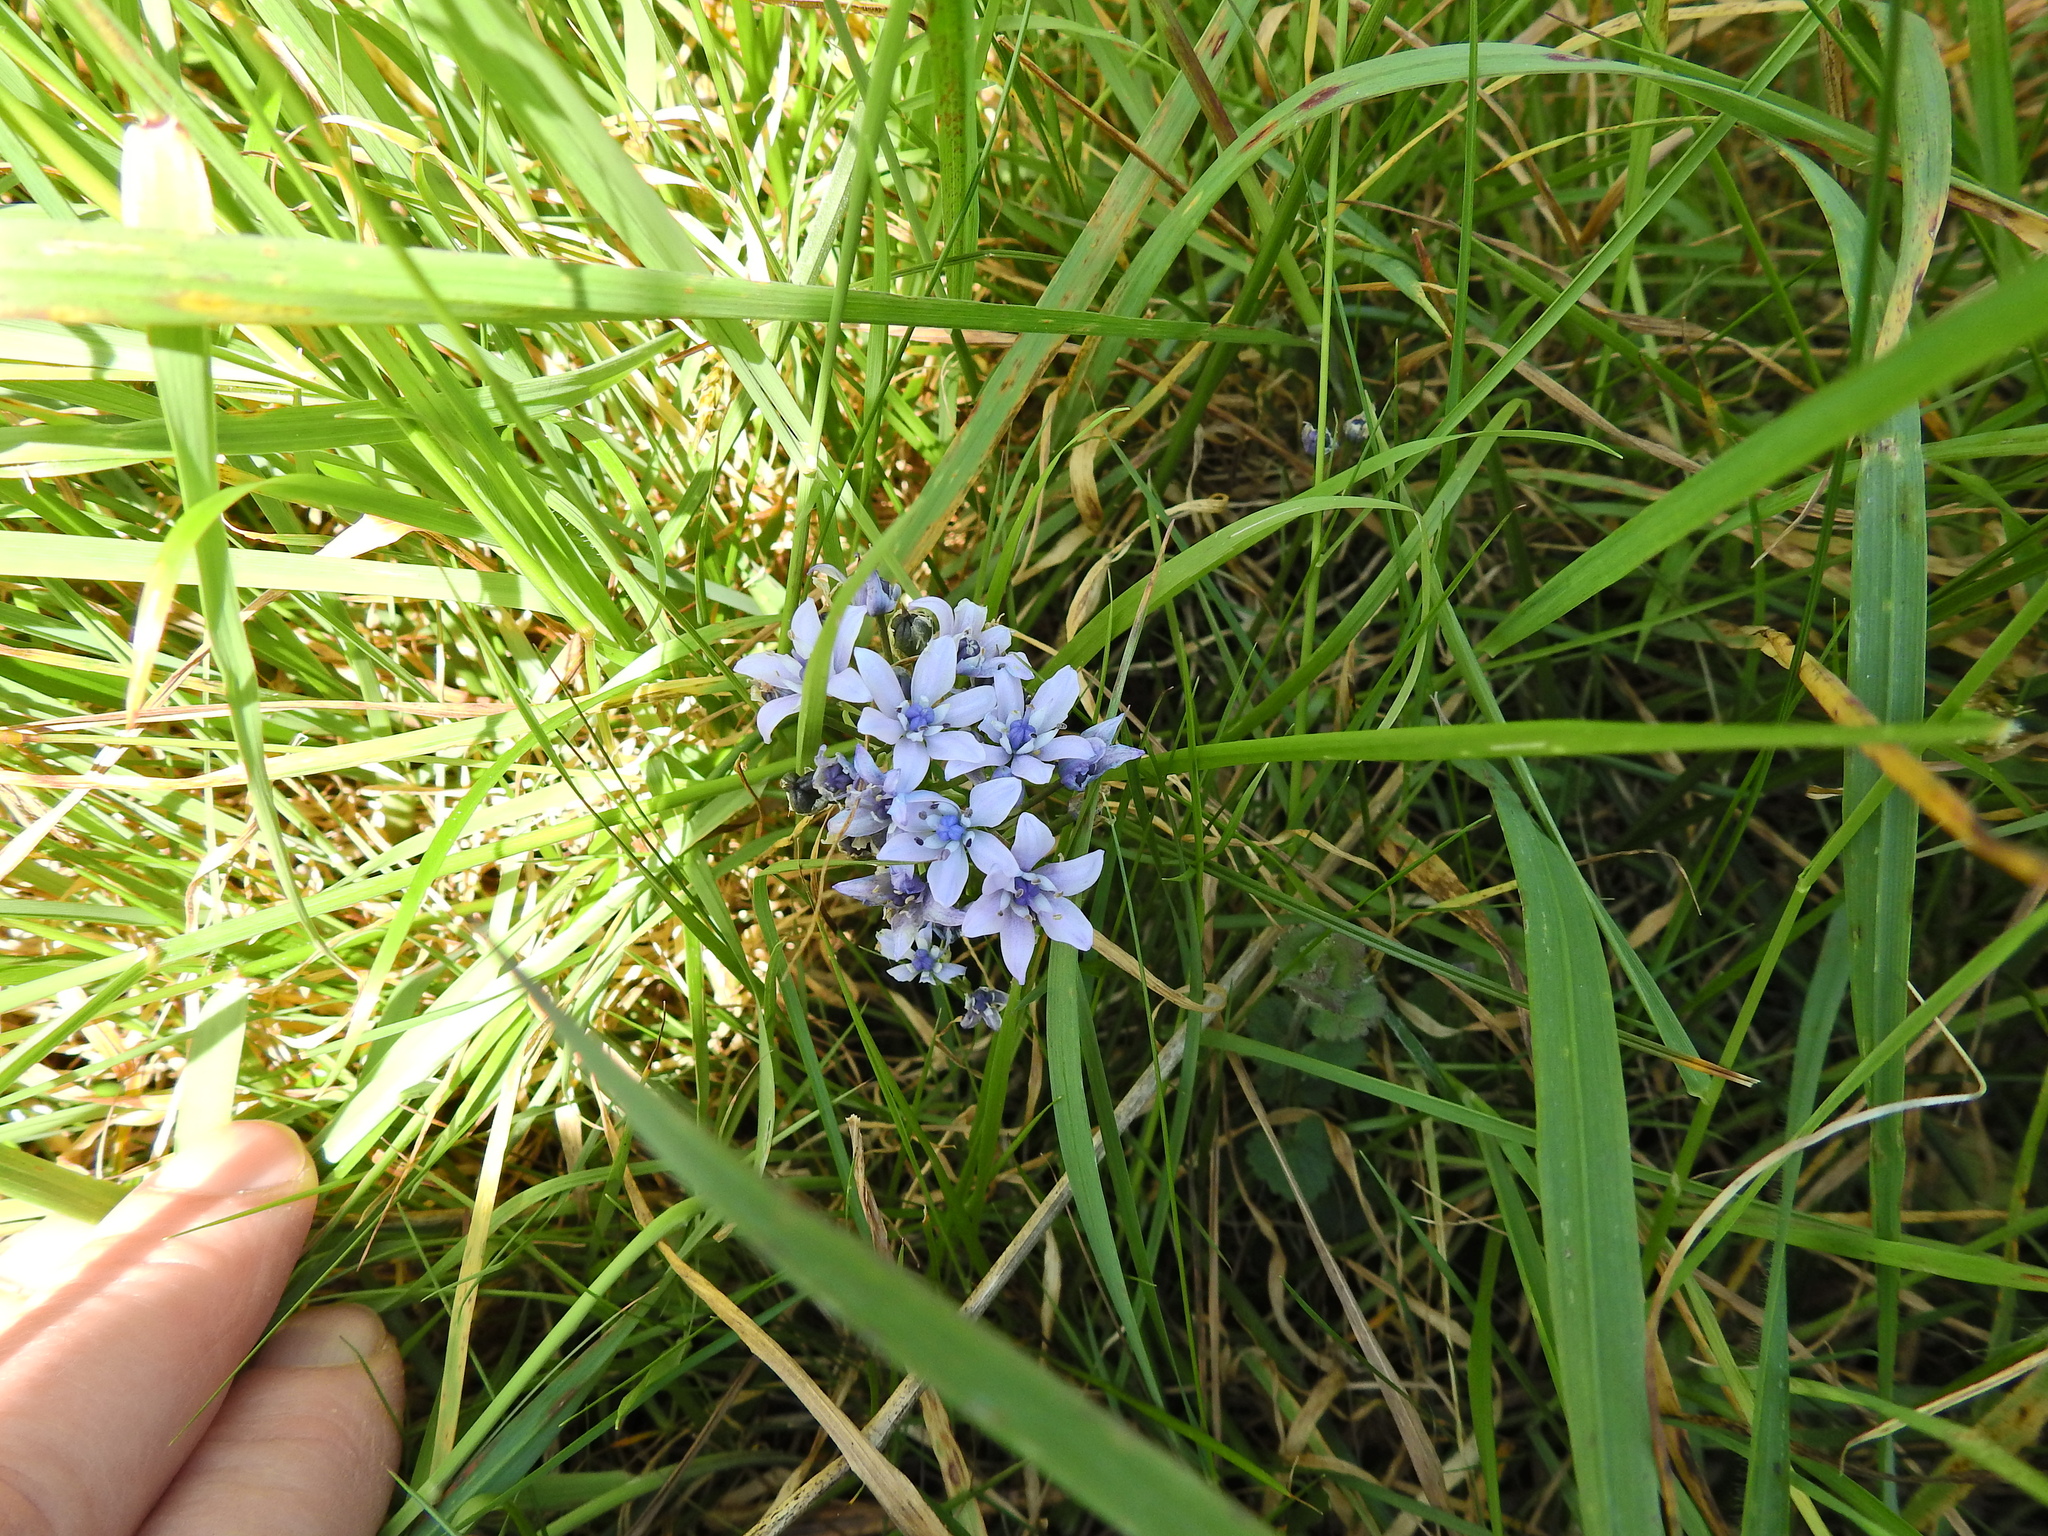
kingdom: Plantae
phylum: Tracheophyta
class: Liliopsida
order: Asparagales
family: Asparagaceae
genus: Scilla
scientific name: Scilla verna
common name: Spring squill
